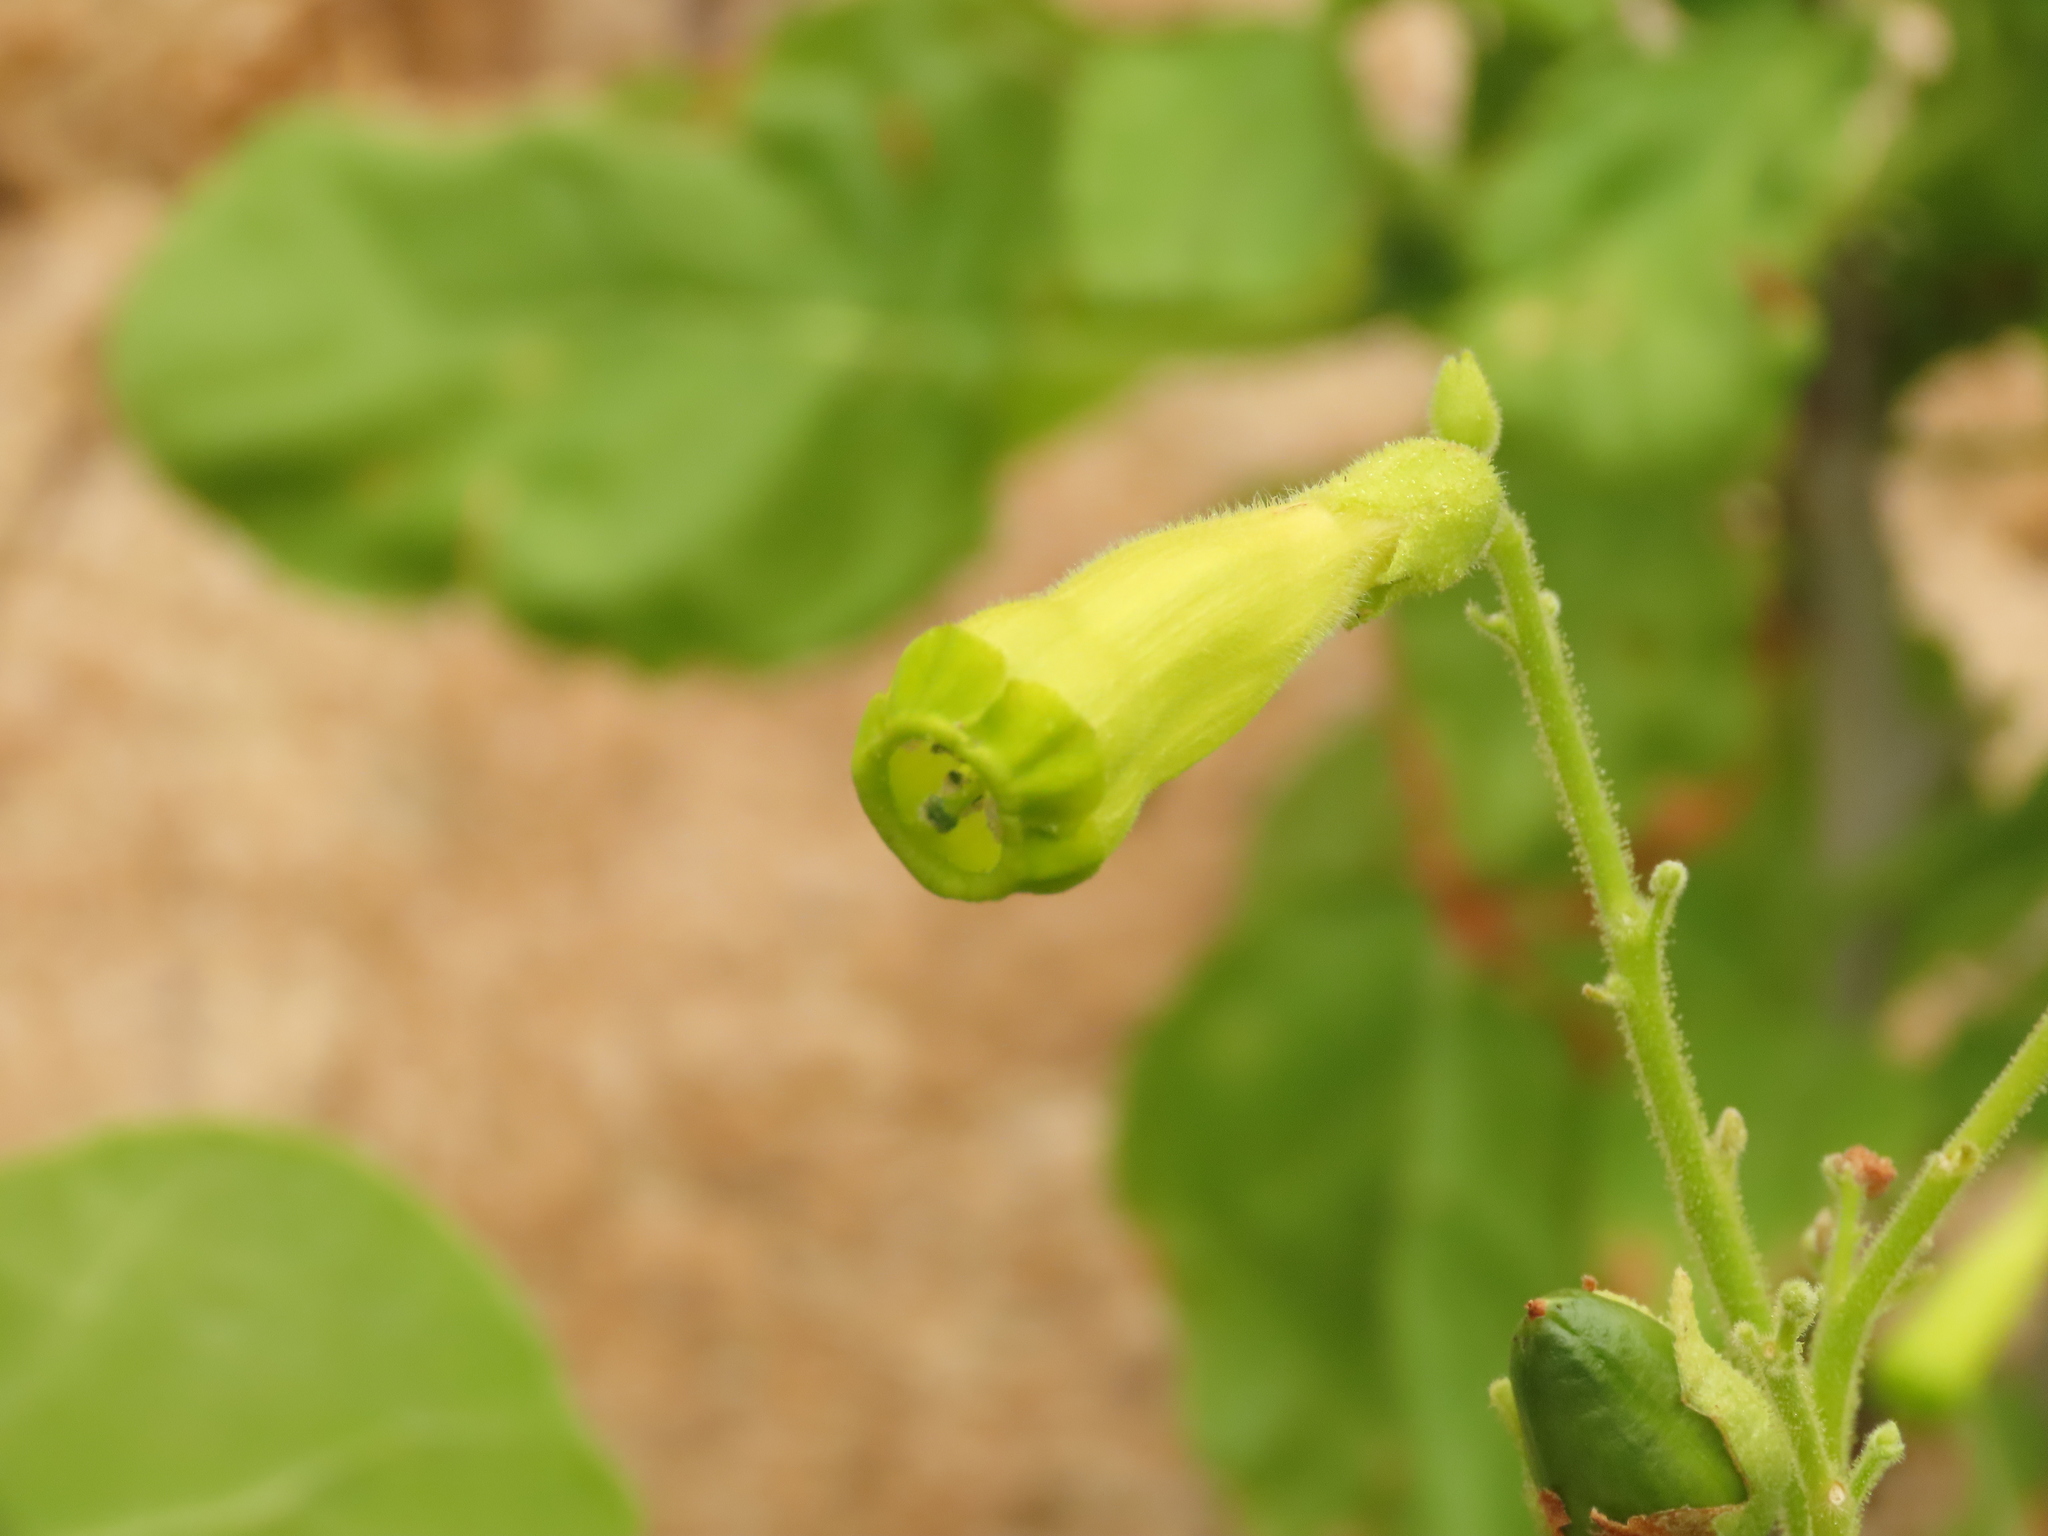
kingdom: Plantae
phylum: Tracheophyta
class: Magnoliopsida
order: Solanales
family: Solanaceae
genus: Nicotiana
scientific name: Nicotiana solanifolia
